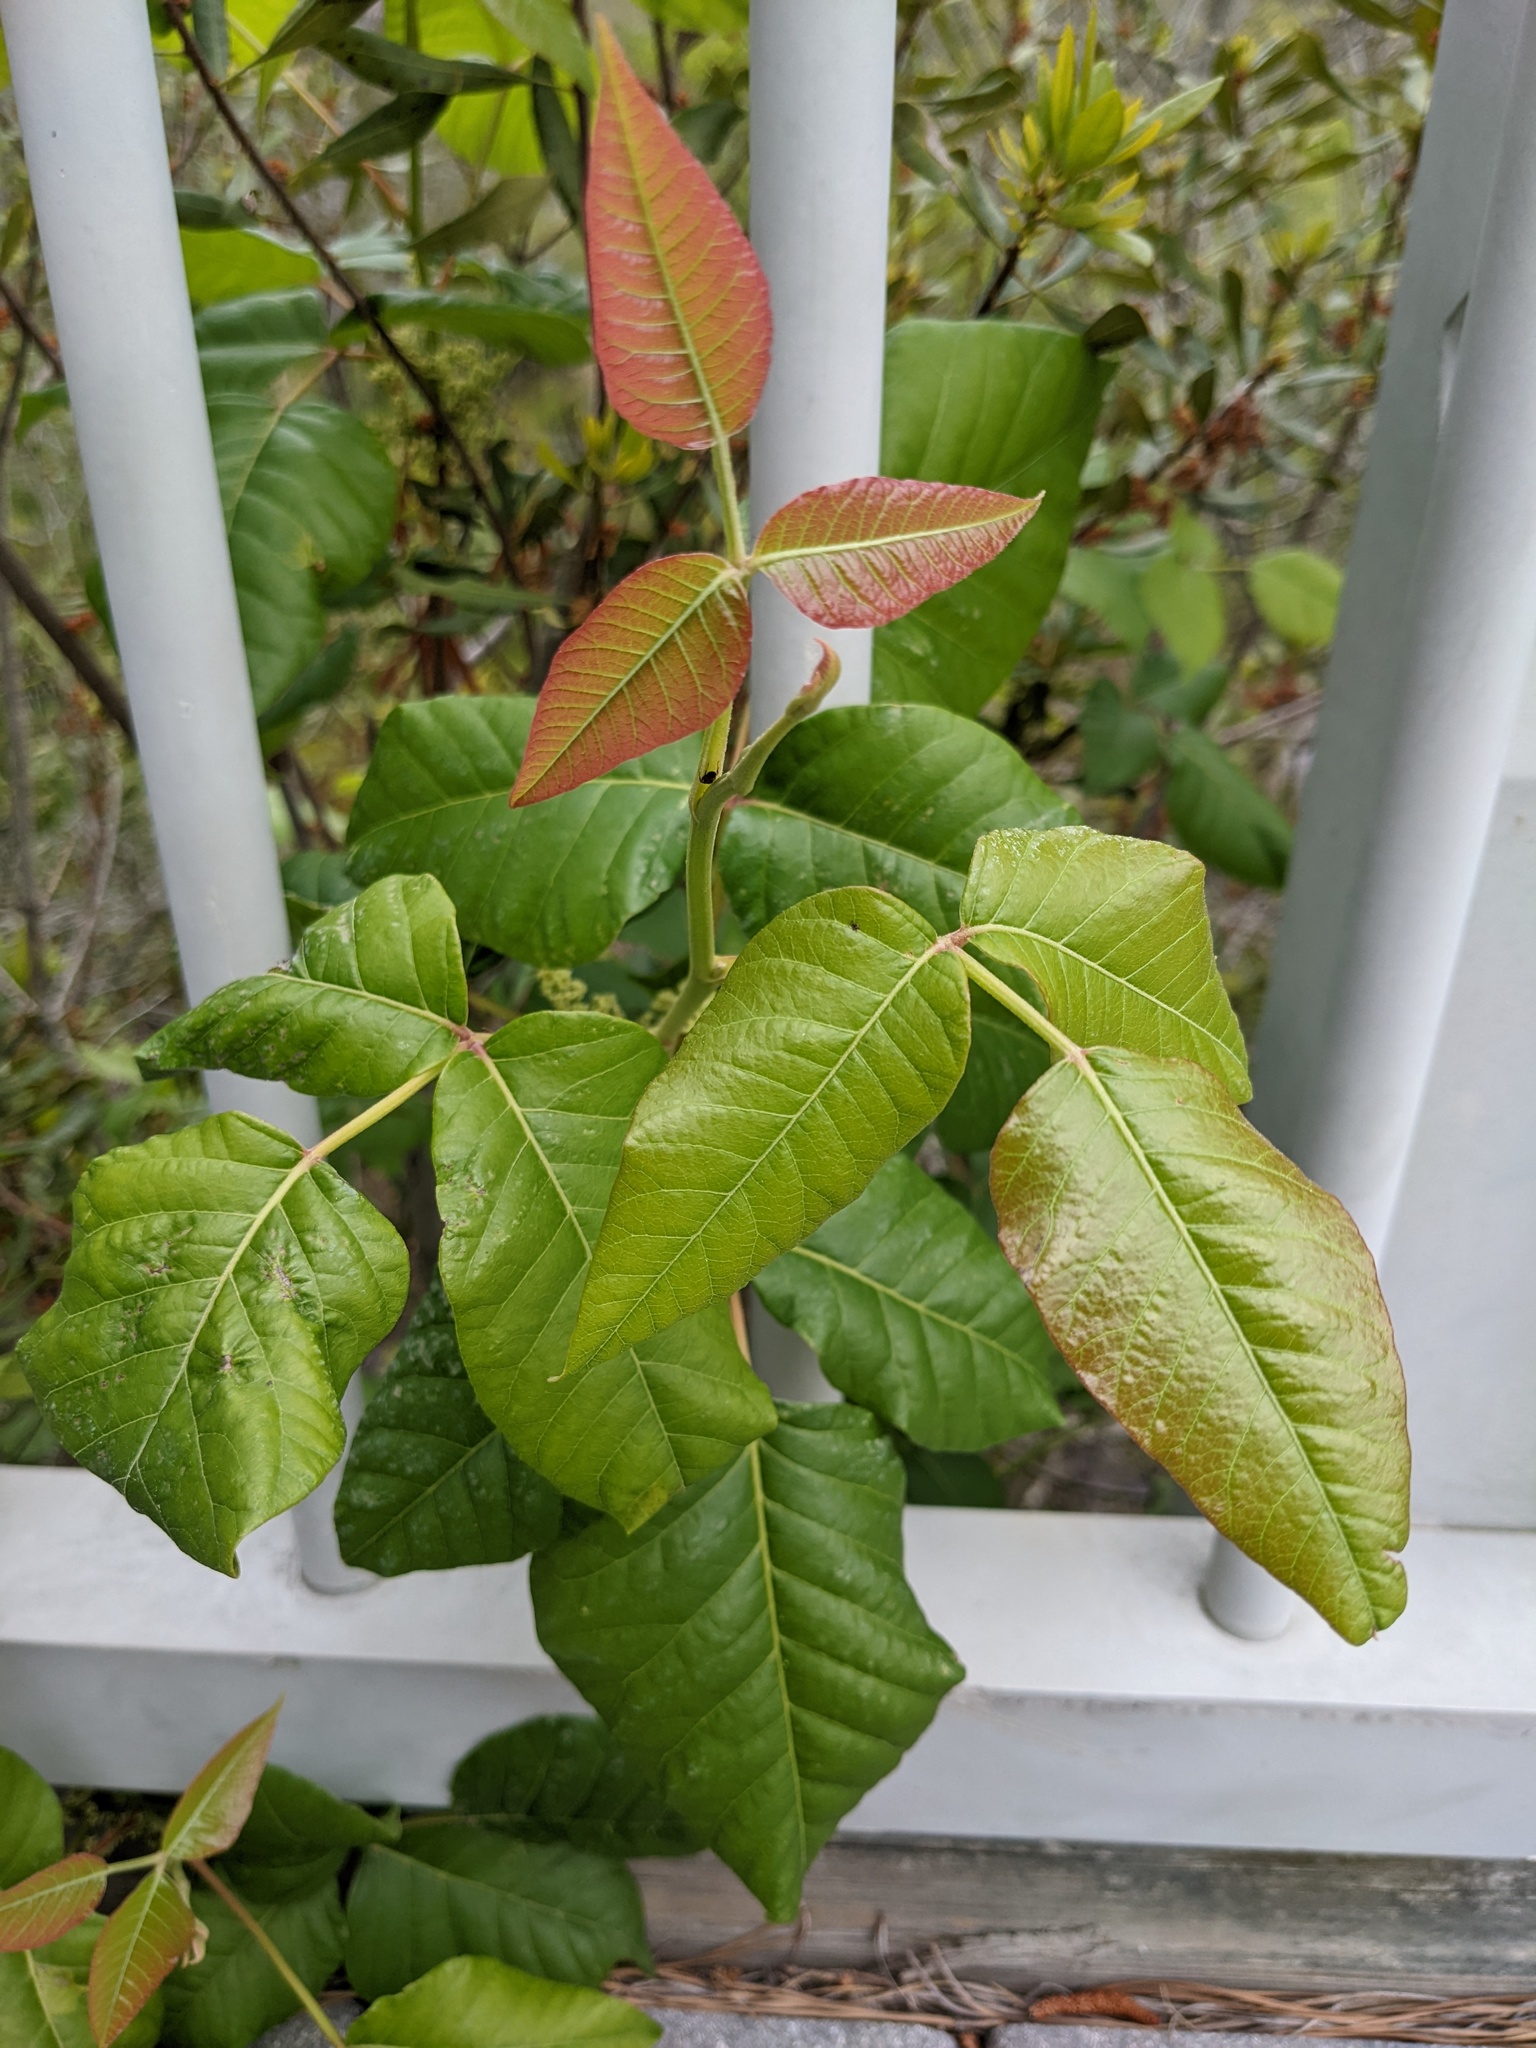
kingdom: Plantae
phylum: Tracheophyta
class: Magnoliopsida
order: Sapindales
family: Anacardiaceae
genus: Toxicodendron
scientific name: Toxicodendron radicans
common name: Poison ivy
